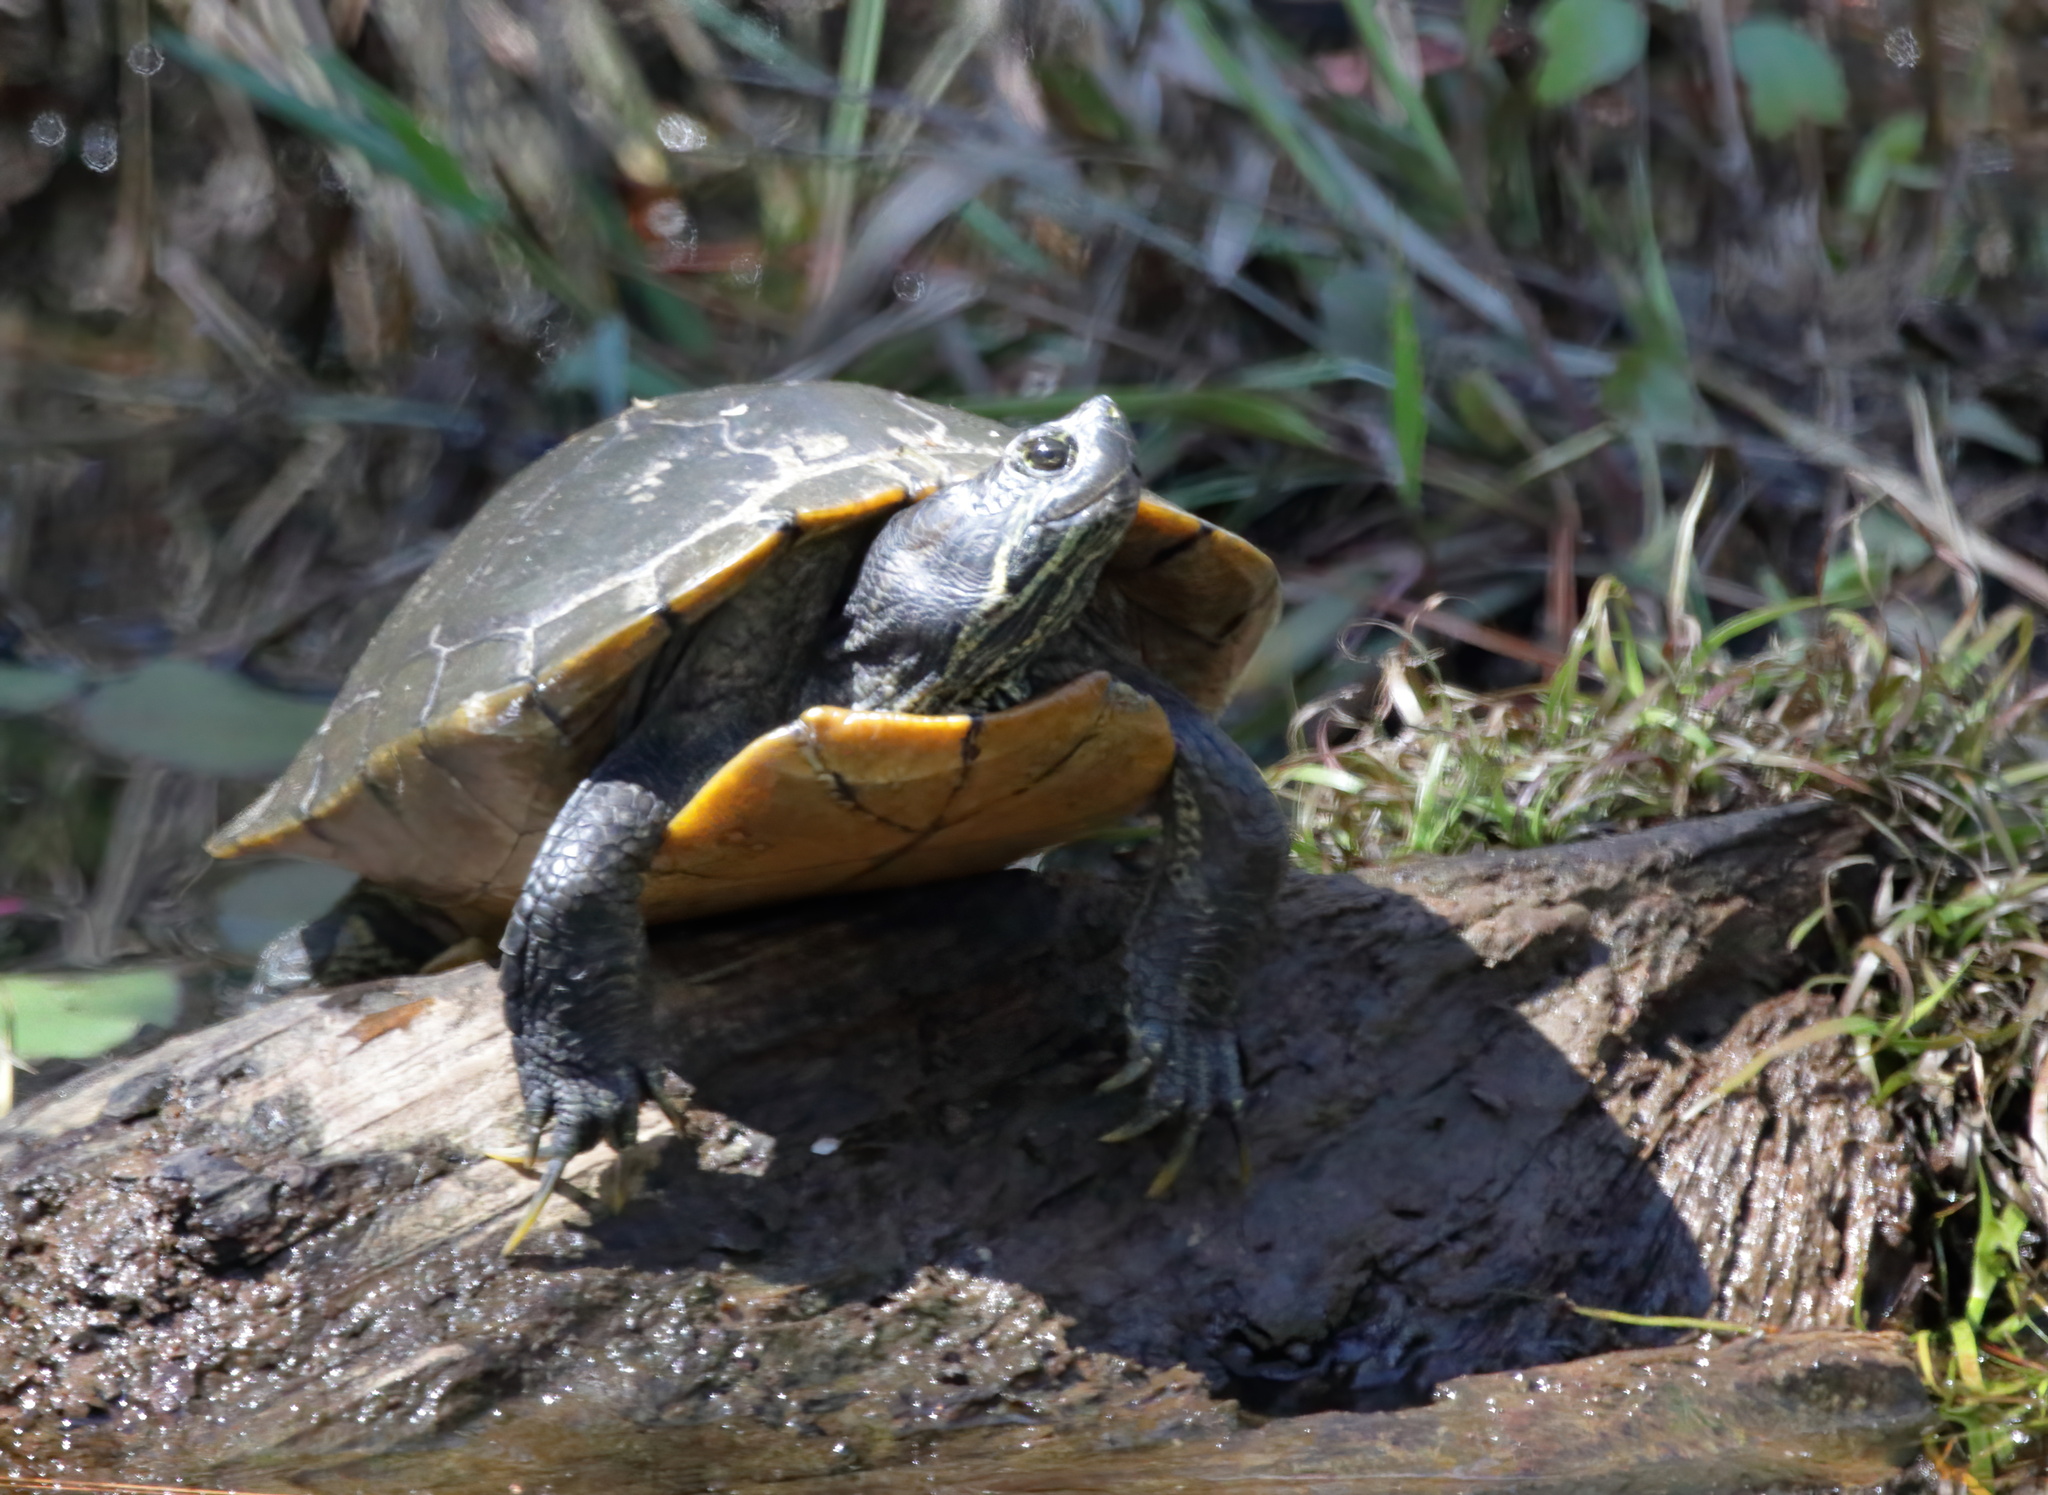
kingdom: Animalia
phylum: Chordata
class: Testudines
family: Emydidae
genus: Trachemys
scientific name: Trachemys scripta
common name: Slider
